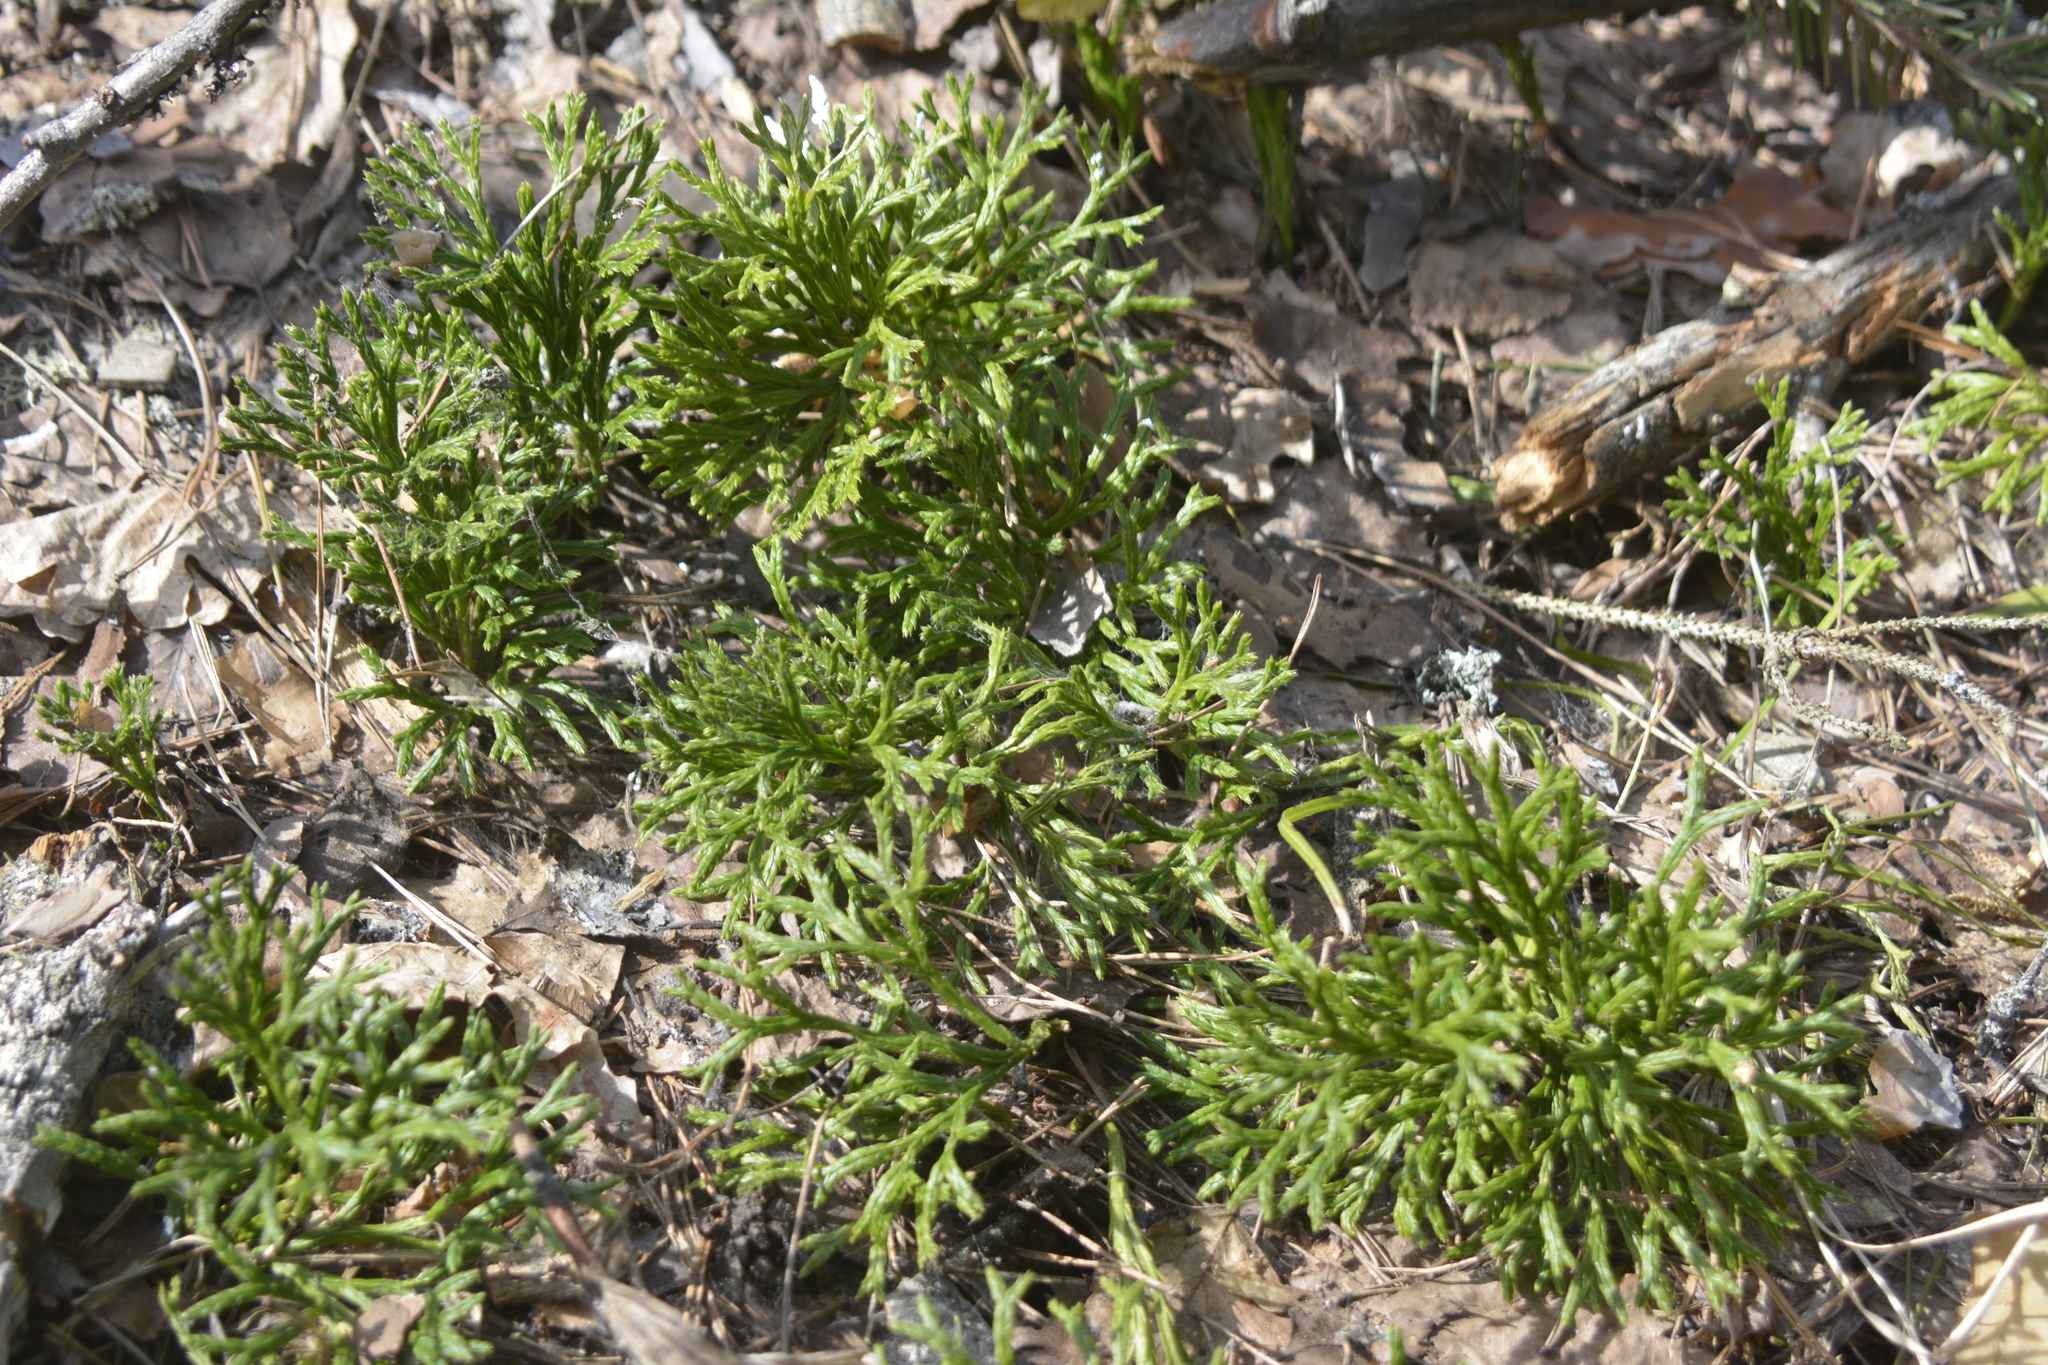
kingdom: Plantae
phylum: Tracheophyta
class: Lycopodiopsida
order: Lycopodiales
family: Lycopodiaceae
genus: Diphasiastrum
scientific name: Diphasiastrum complanatum
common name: Northern running-pine
